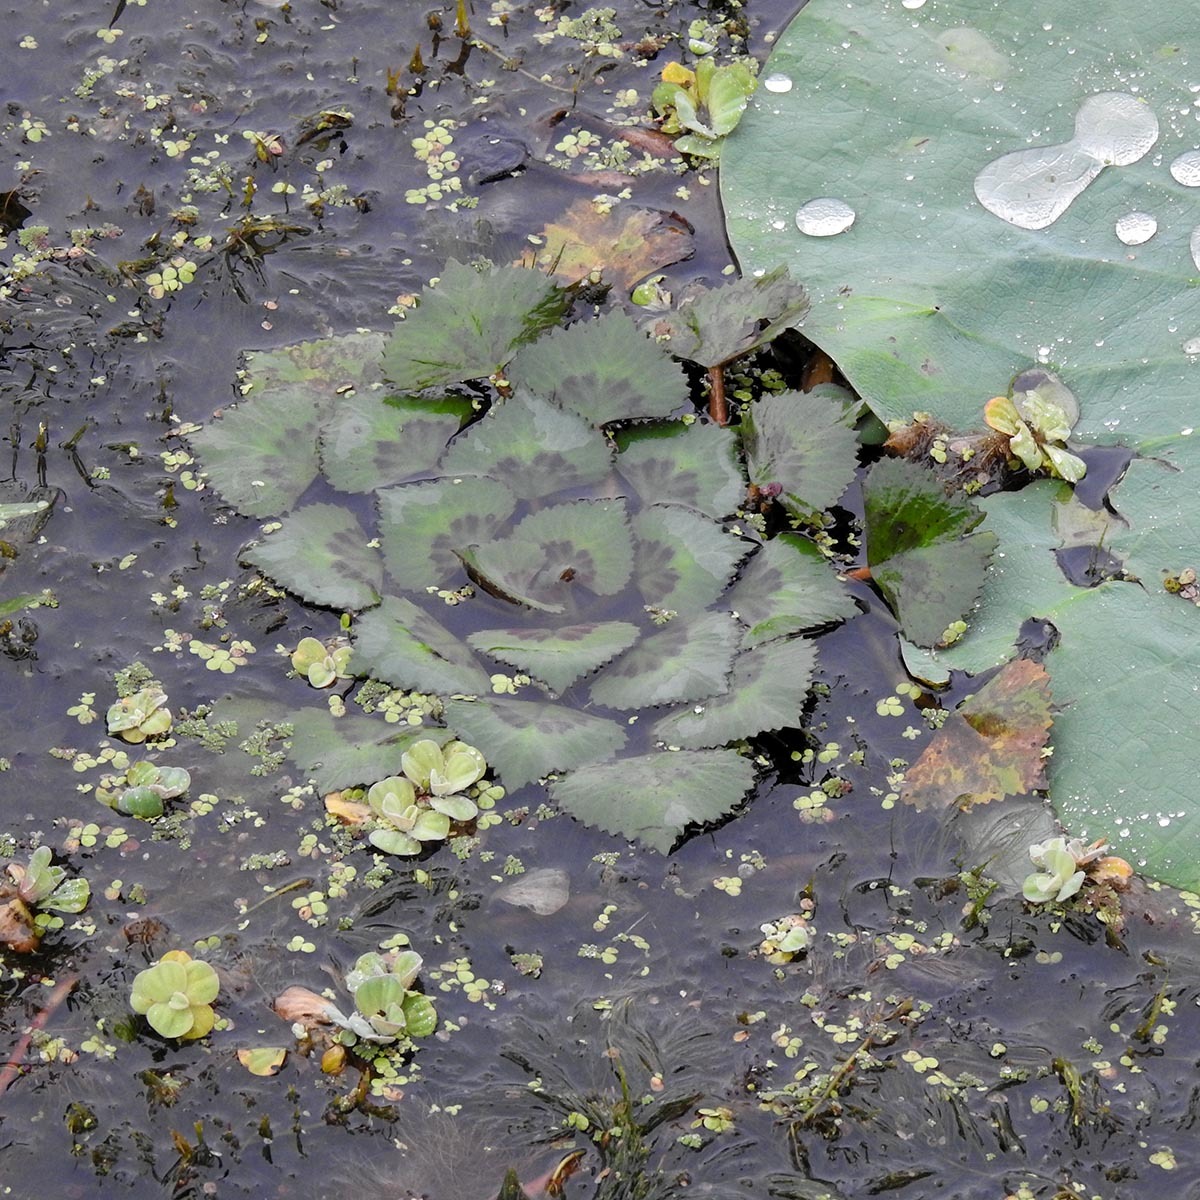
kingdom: Plantae
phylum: Tracheophyta
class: Magnoliopsida
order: Myrtales
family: Lythraceae
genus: Trapa
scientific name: Trapa natans
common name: Water chestnut
